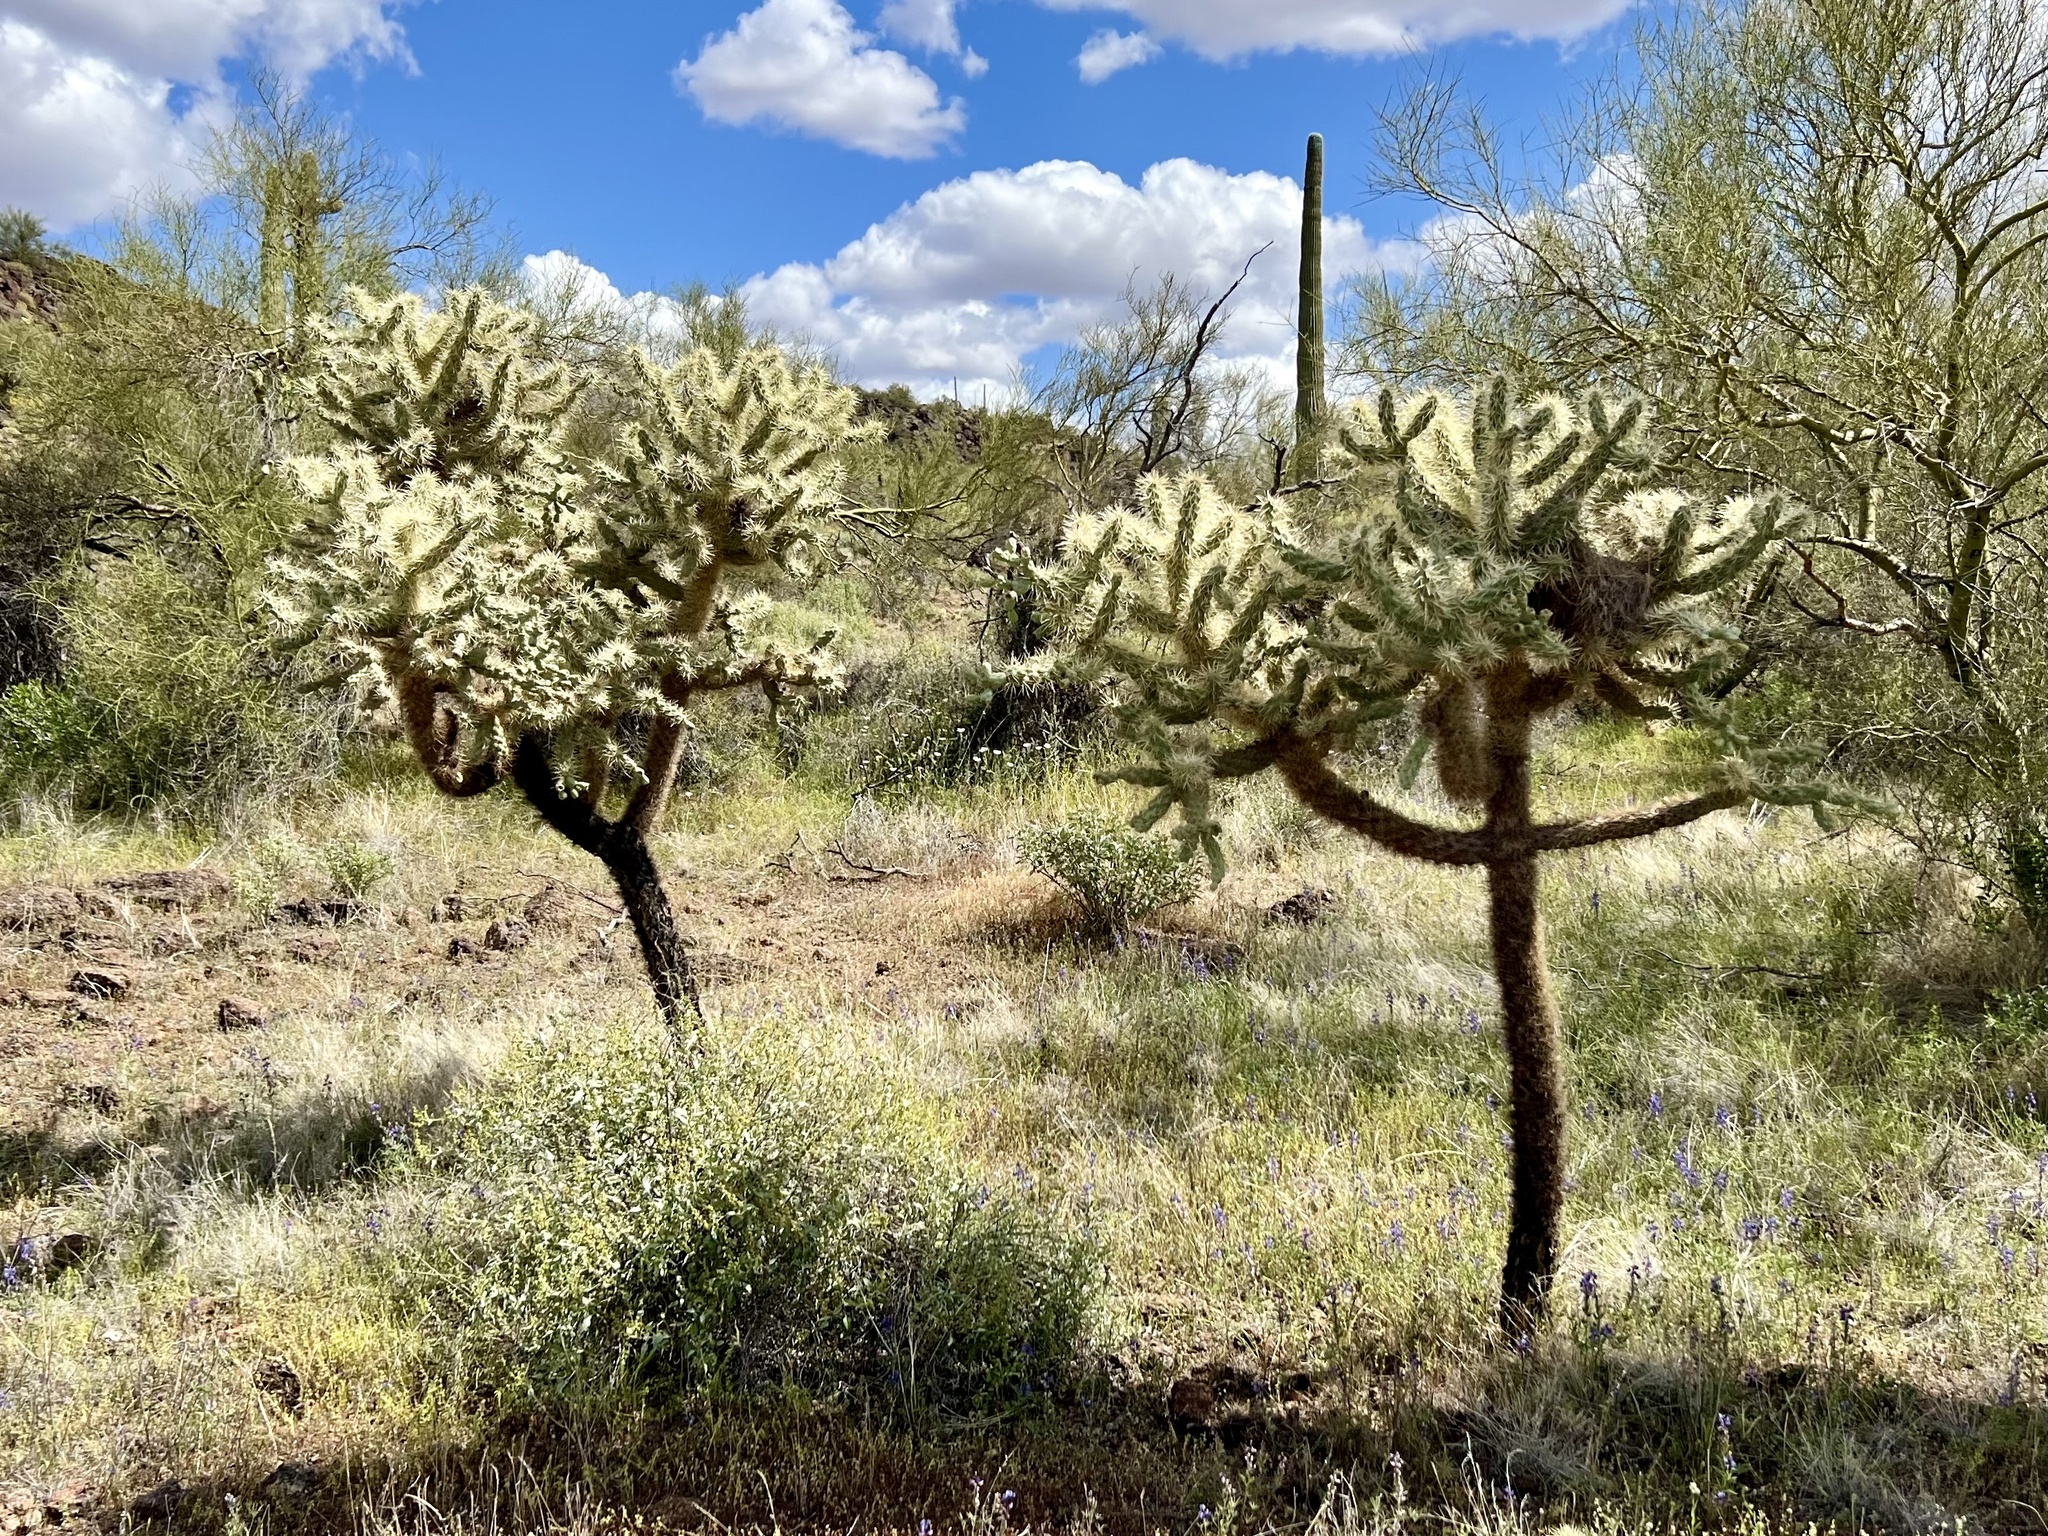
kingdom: Plantae
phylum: Tracheophyta
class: Magnoliopsida
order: Caryophyllales
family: Cactaceae
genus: Cylindropuntia
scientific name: Cylindropuntia fulgida
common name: Jumping cholla
